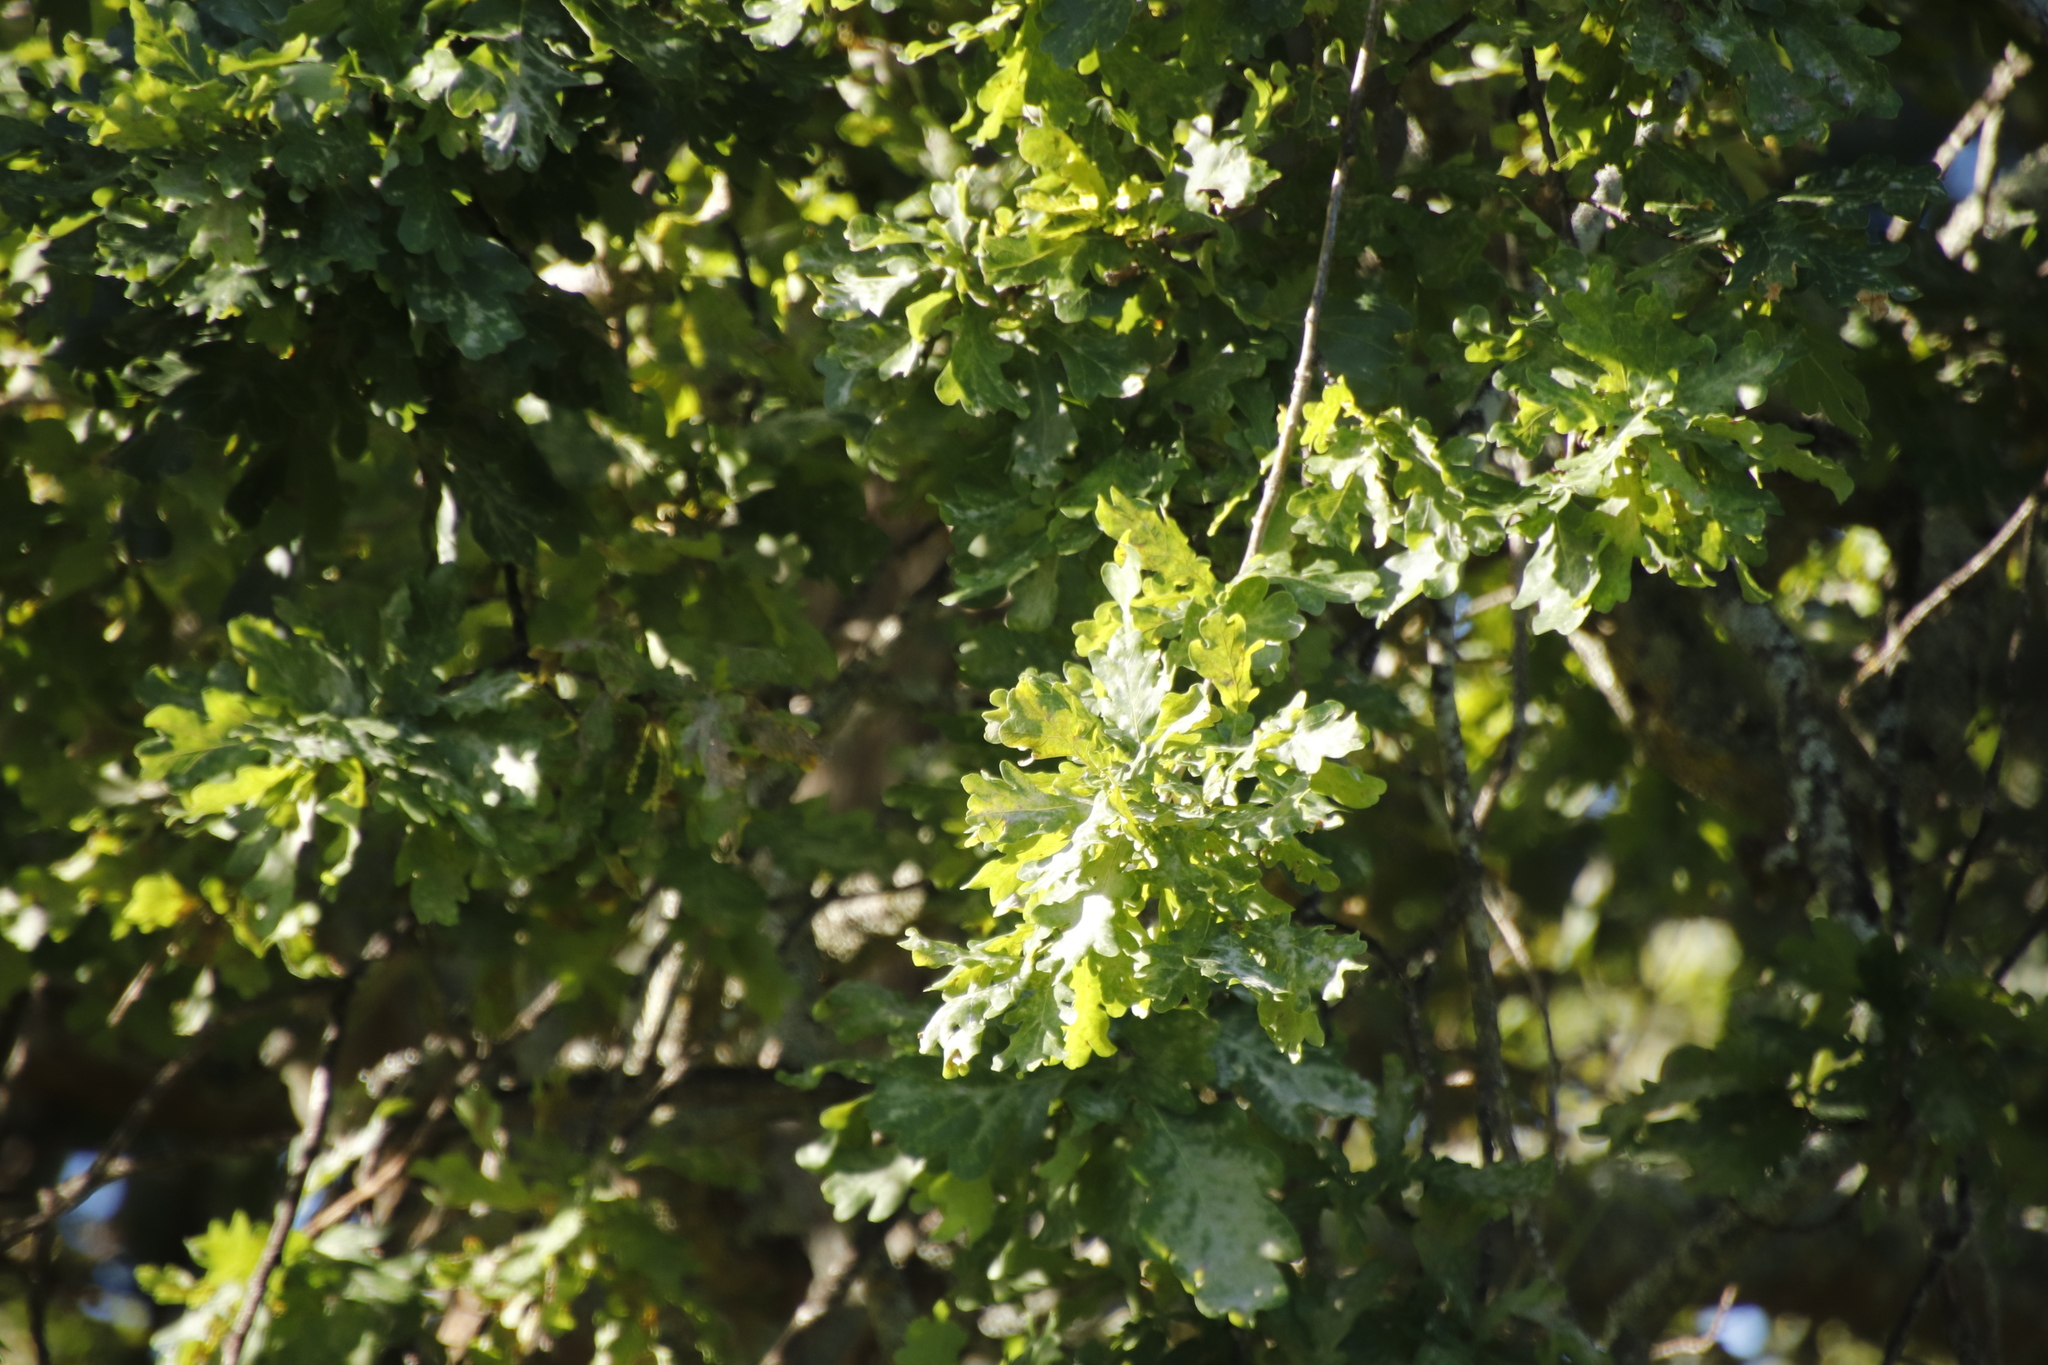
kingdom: Plantae
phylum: Tracheophyta
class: Magnoliopsida
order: Fagales
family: Fagaceae
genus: Quercus
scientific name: Quercus robur
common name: Pedunculate oak
